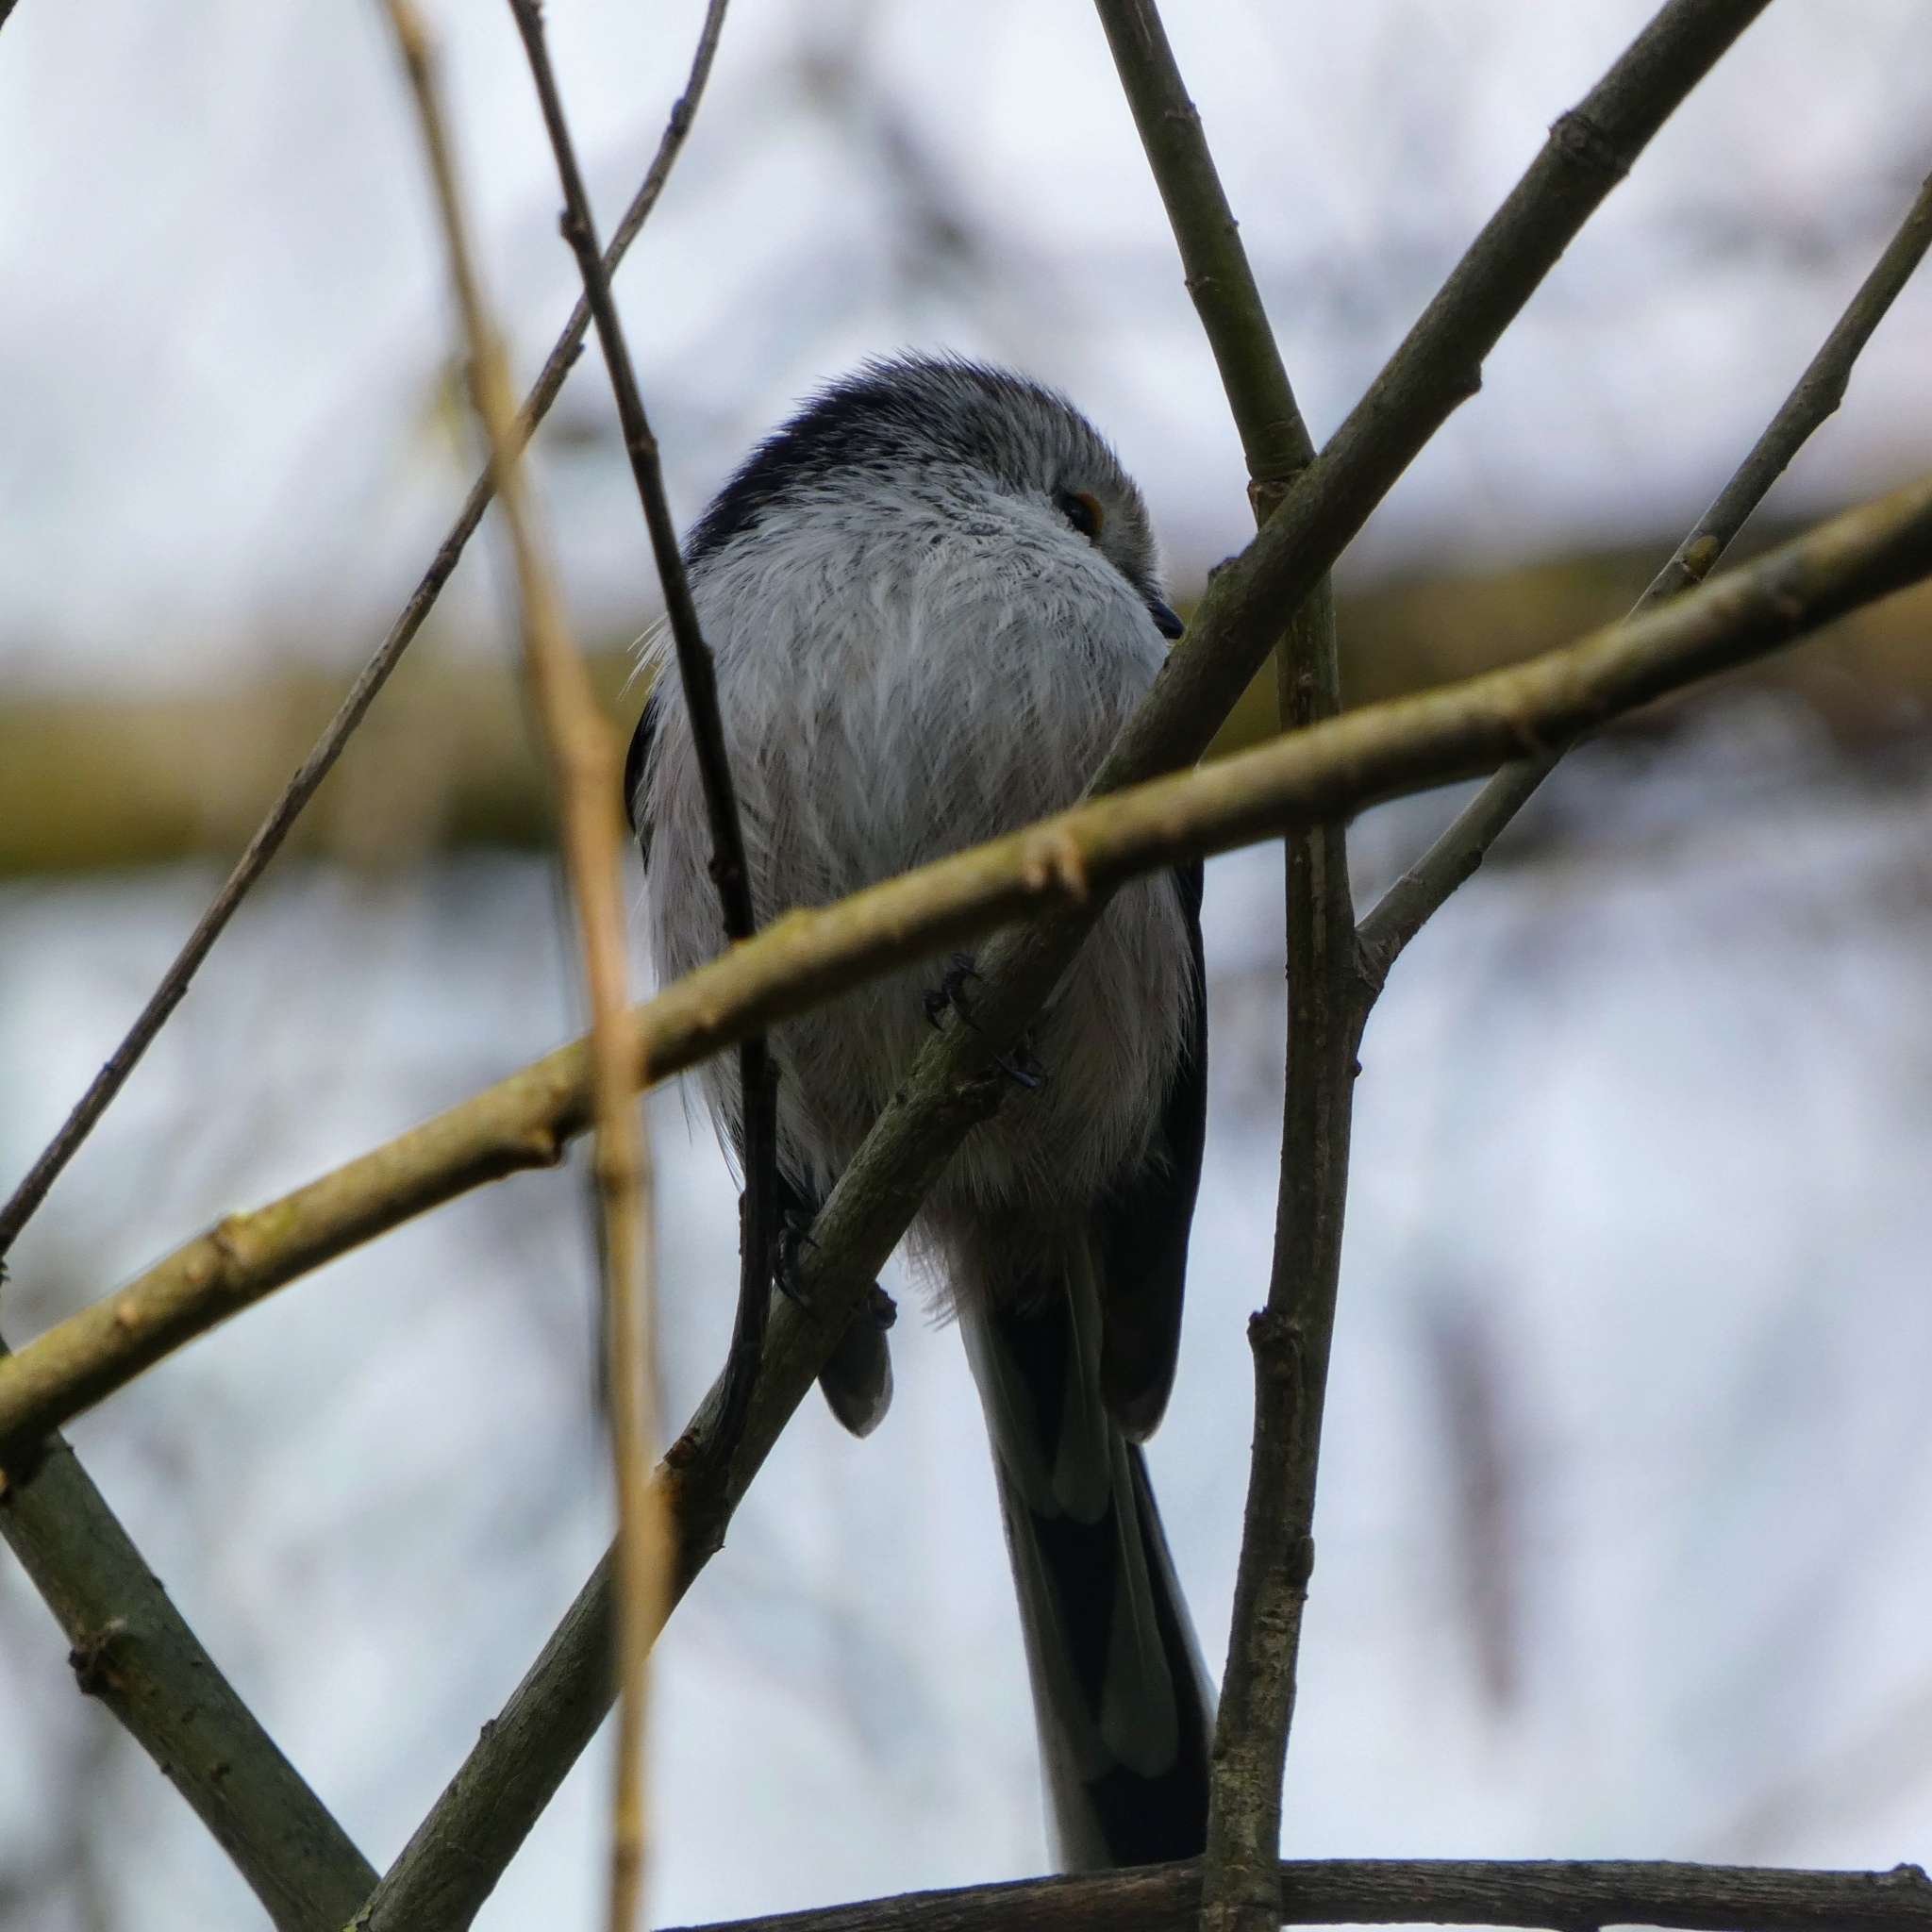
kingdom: Animalia
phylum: Chordata
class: Aves
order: Passeriformes
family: Aegithalidae
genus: Aegithalos
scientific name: Aegithalos caudatus
